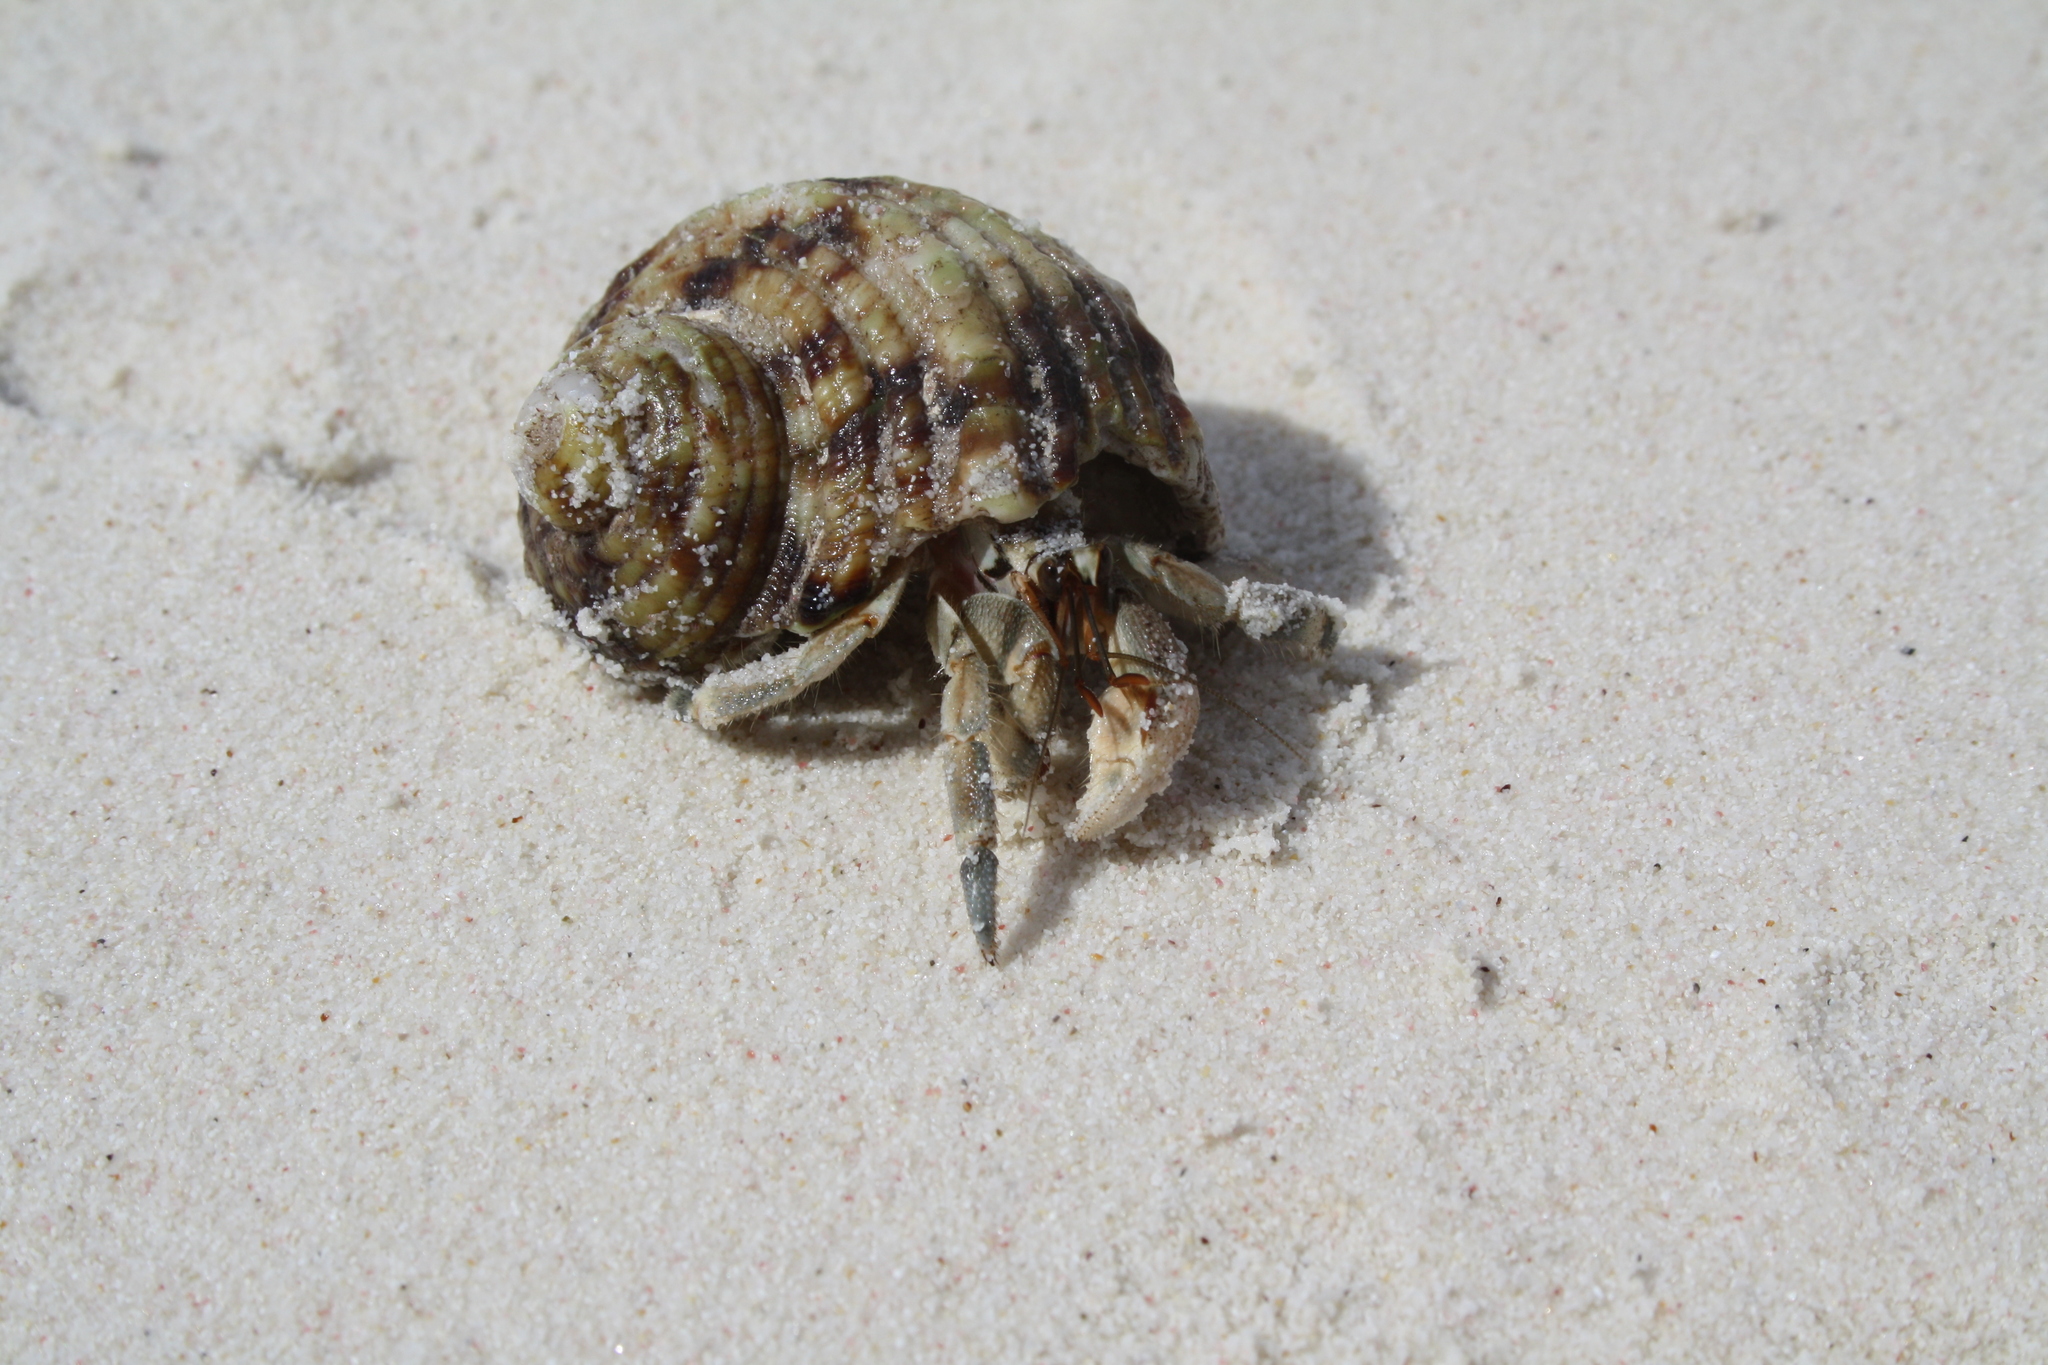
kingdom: Animalia
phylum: Arthropoda
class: Malacostraca
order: Decapoda
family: Coenobitidae
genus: Coenobita
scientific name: Coenobita rugosus
